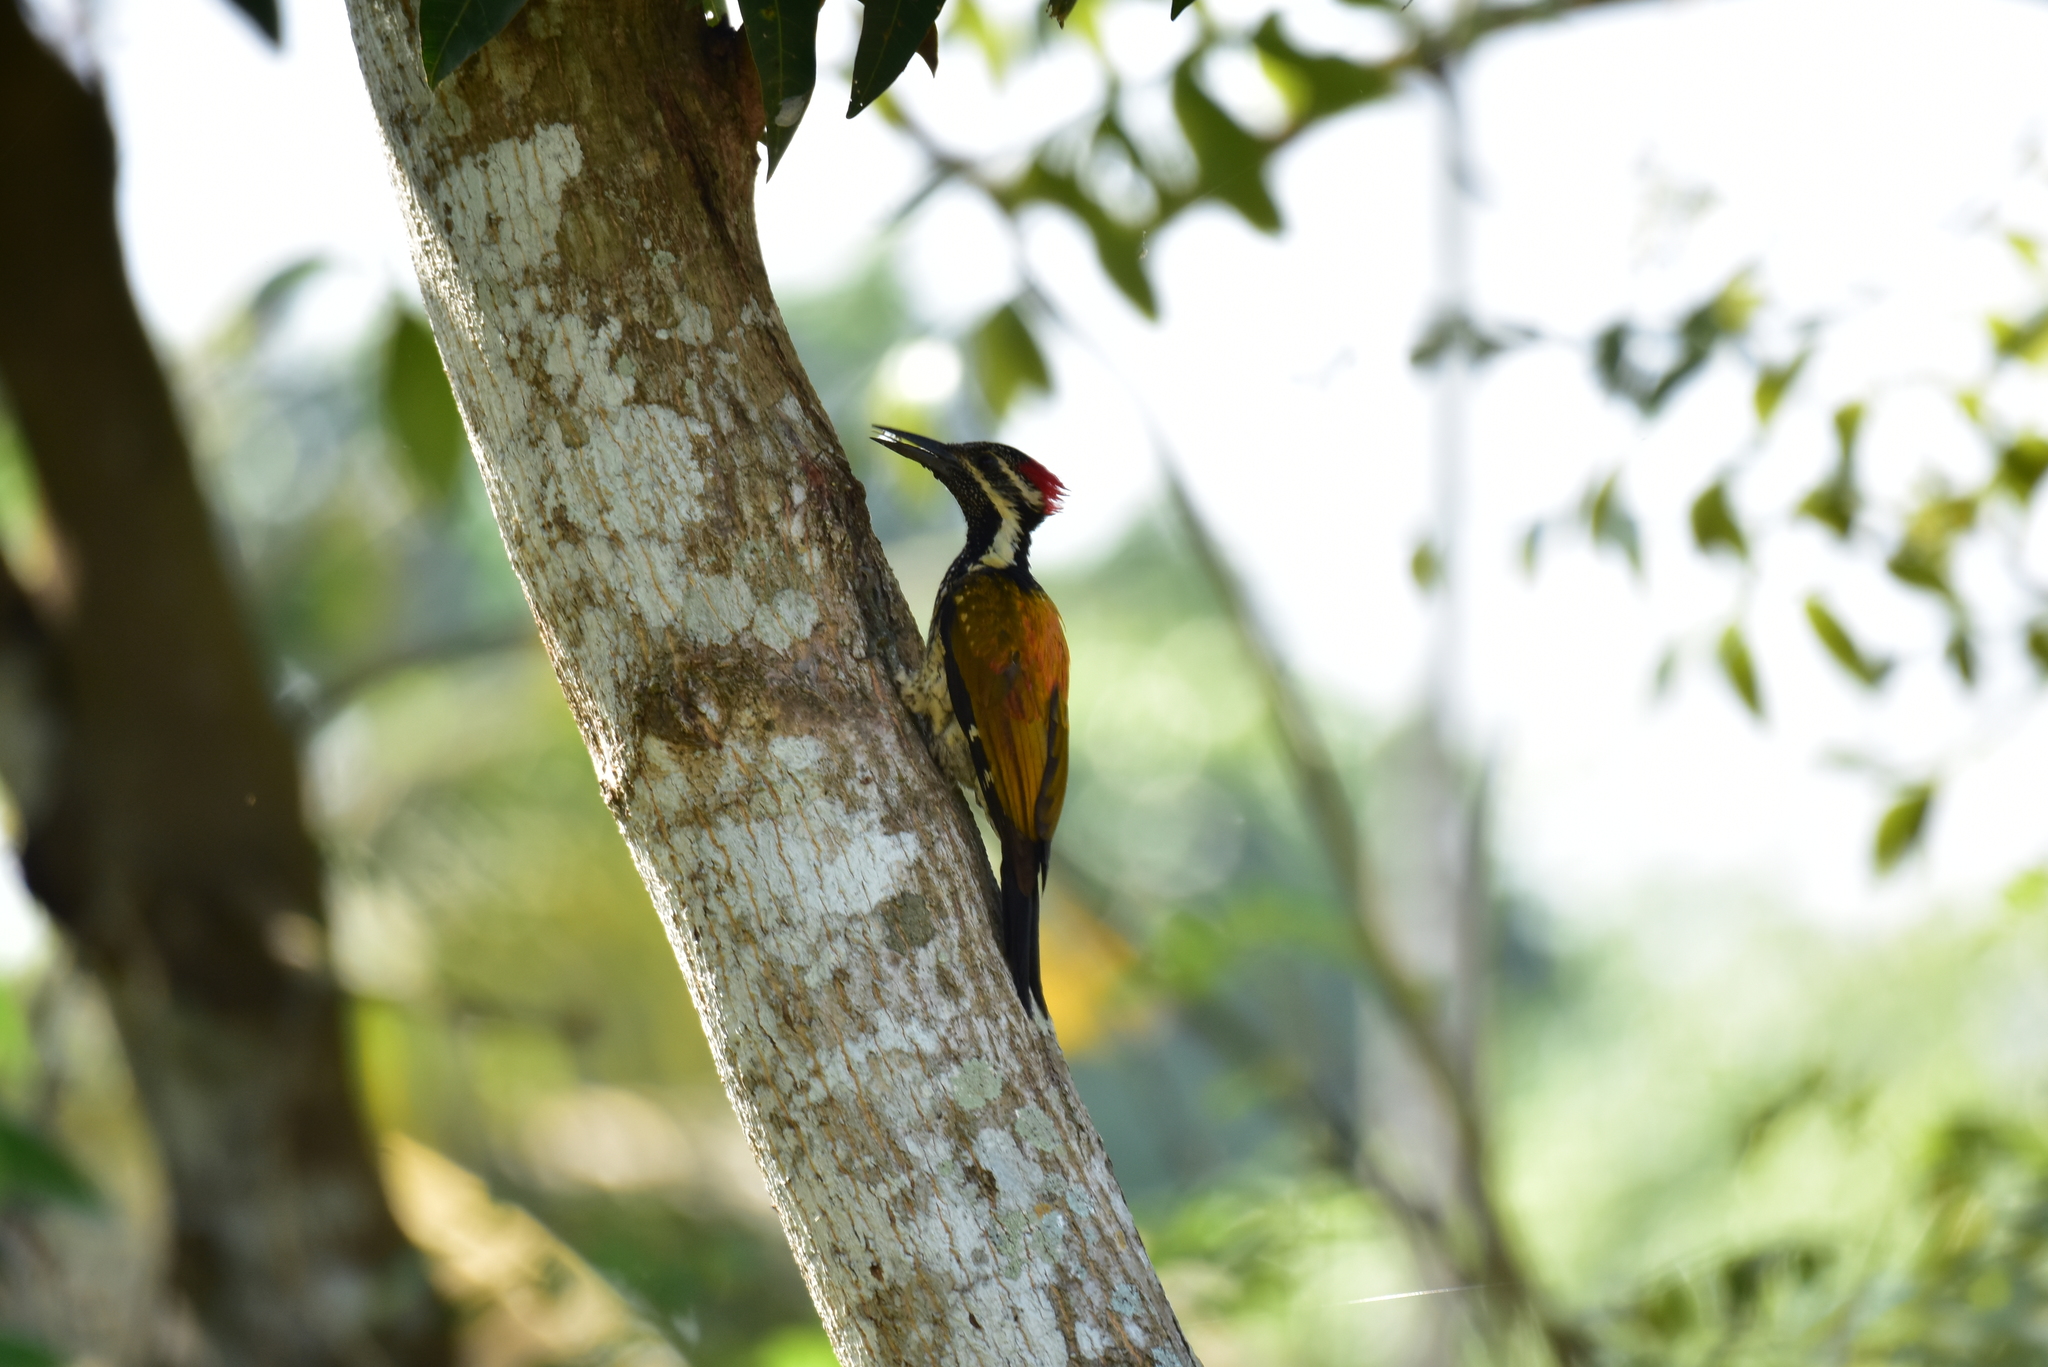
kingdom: Animalia
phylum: Chordata
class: Aves
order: Piciformes
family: Picidae
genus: Dinopium
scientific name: Dinopium benghalense
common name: Black-rumped flameback
